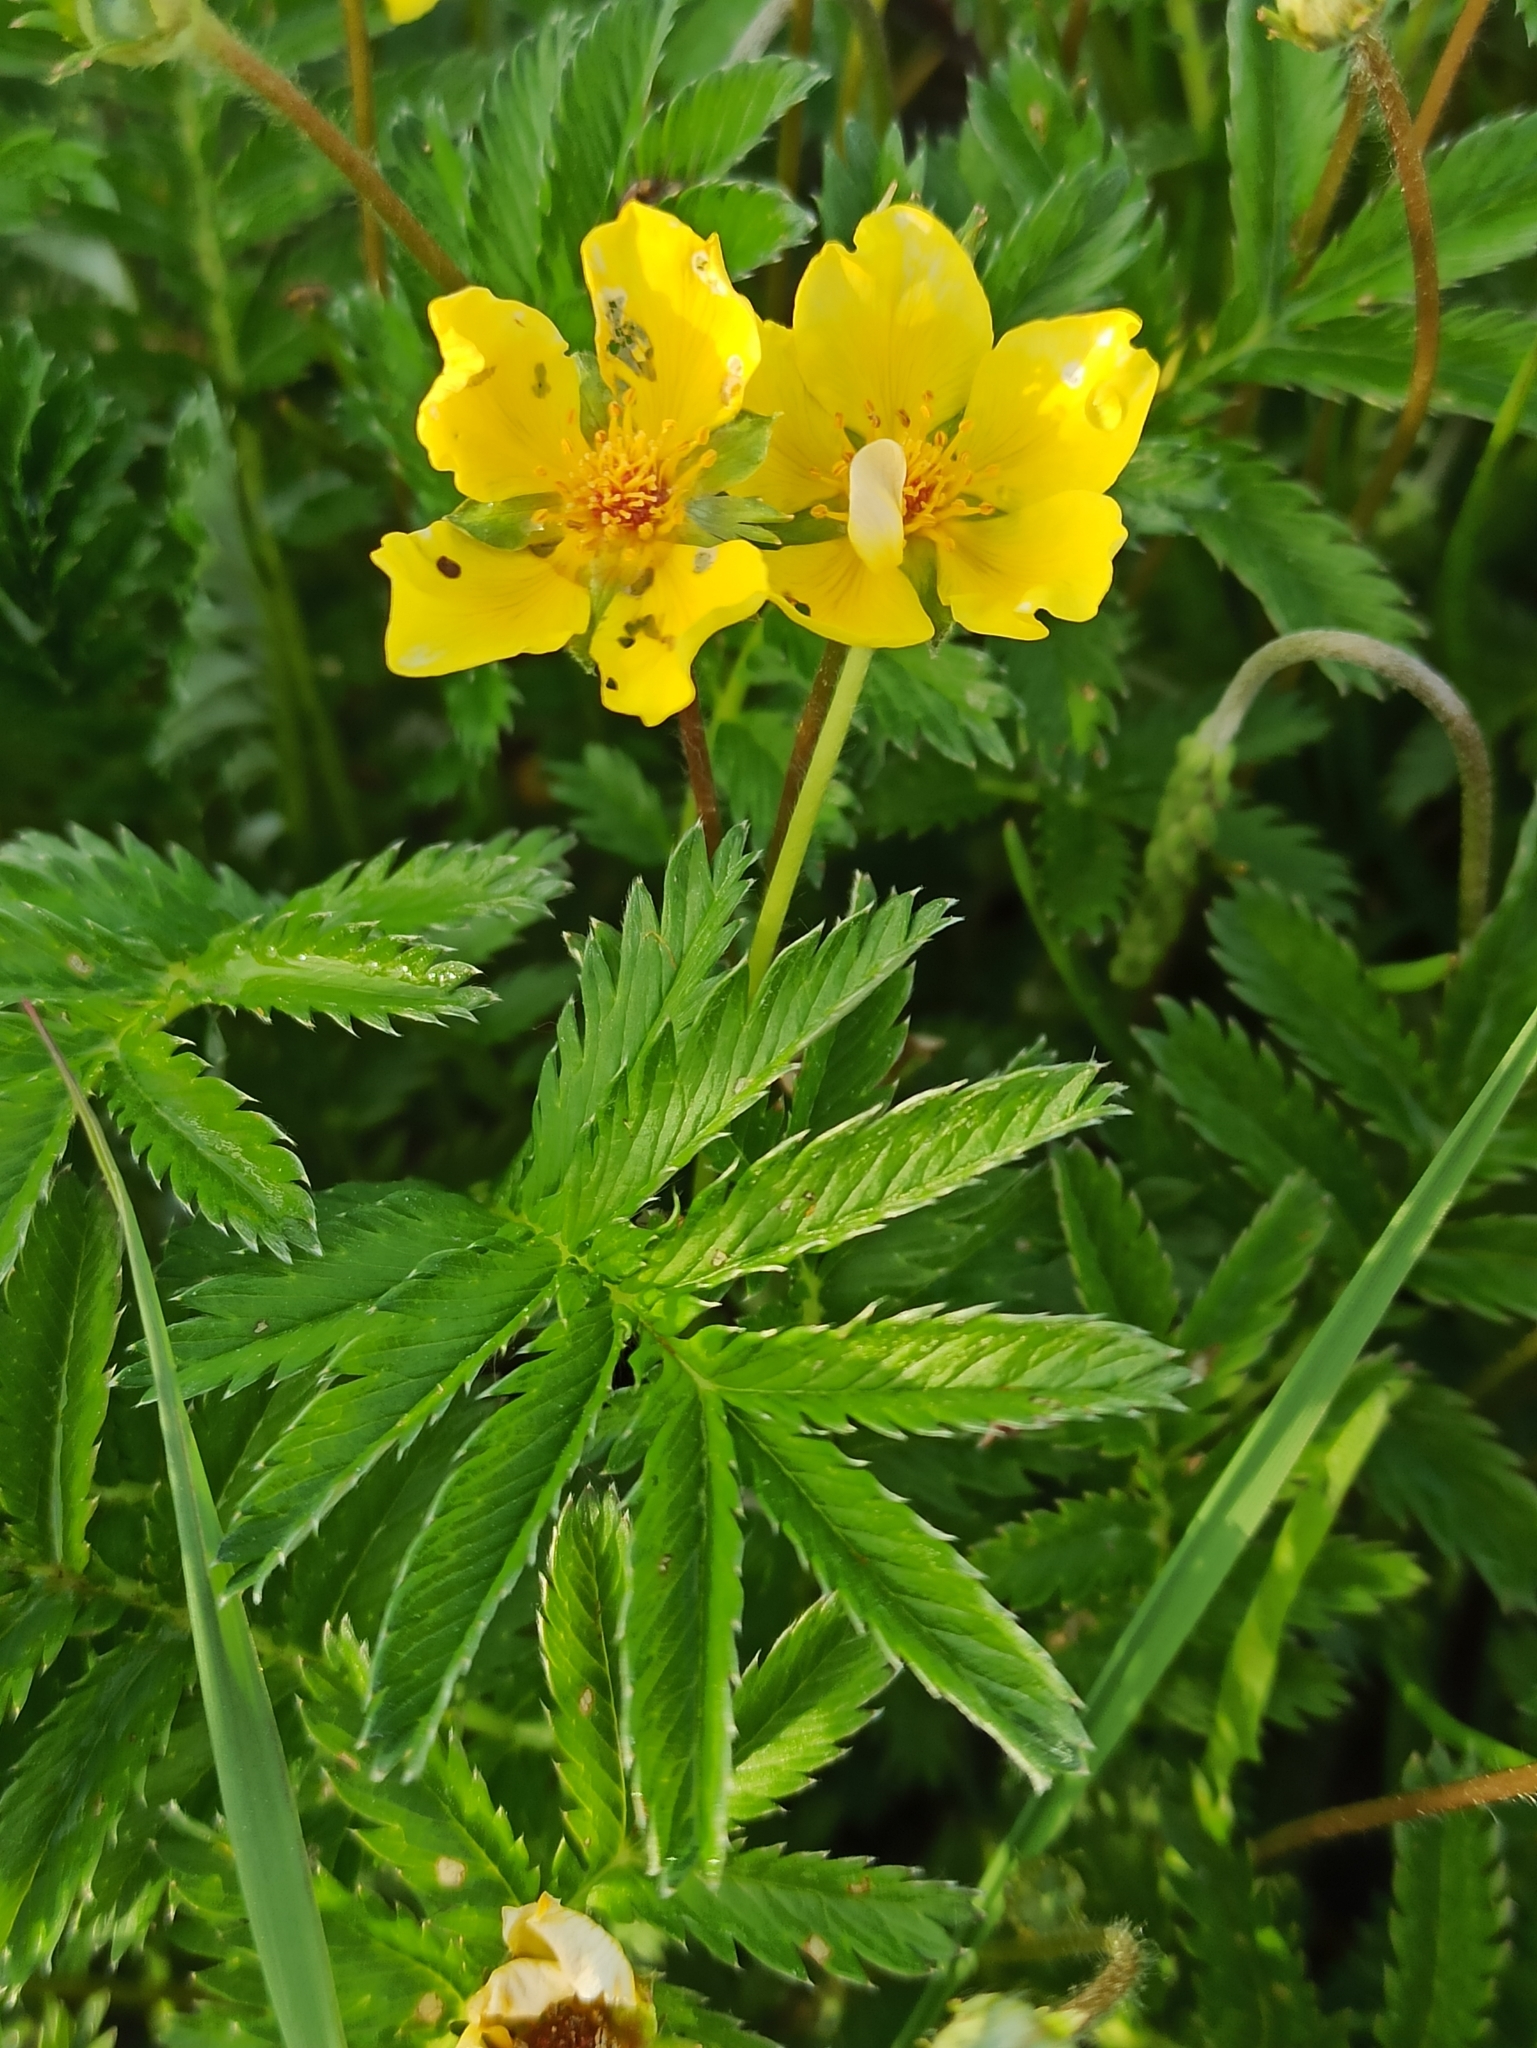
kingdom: Plantae
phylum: Tracheophyta
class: Magnoliopsida
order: Rosales
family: Rosaceae
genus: Argentina
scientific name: Argentina anserina
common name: Common silverweed
